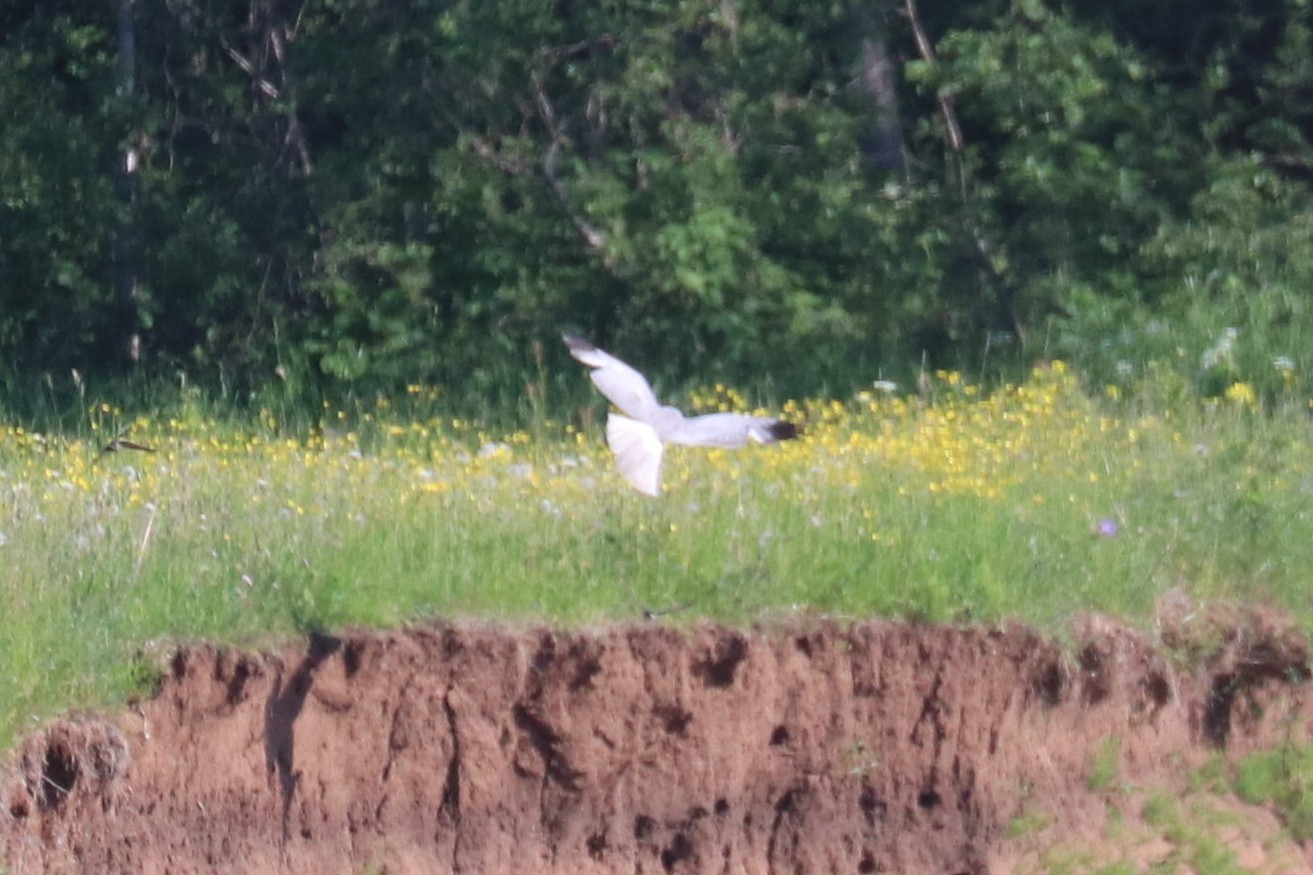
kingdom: Animalia
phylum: Chordata
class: Aves
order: Accipitriformes
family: Accipitridae
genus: Circus
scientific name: Circus cyaneus
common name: Hen harrier
